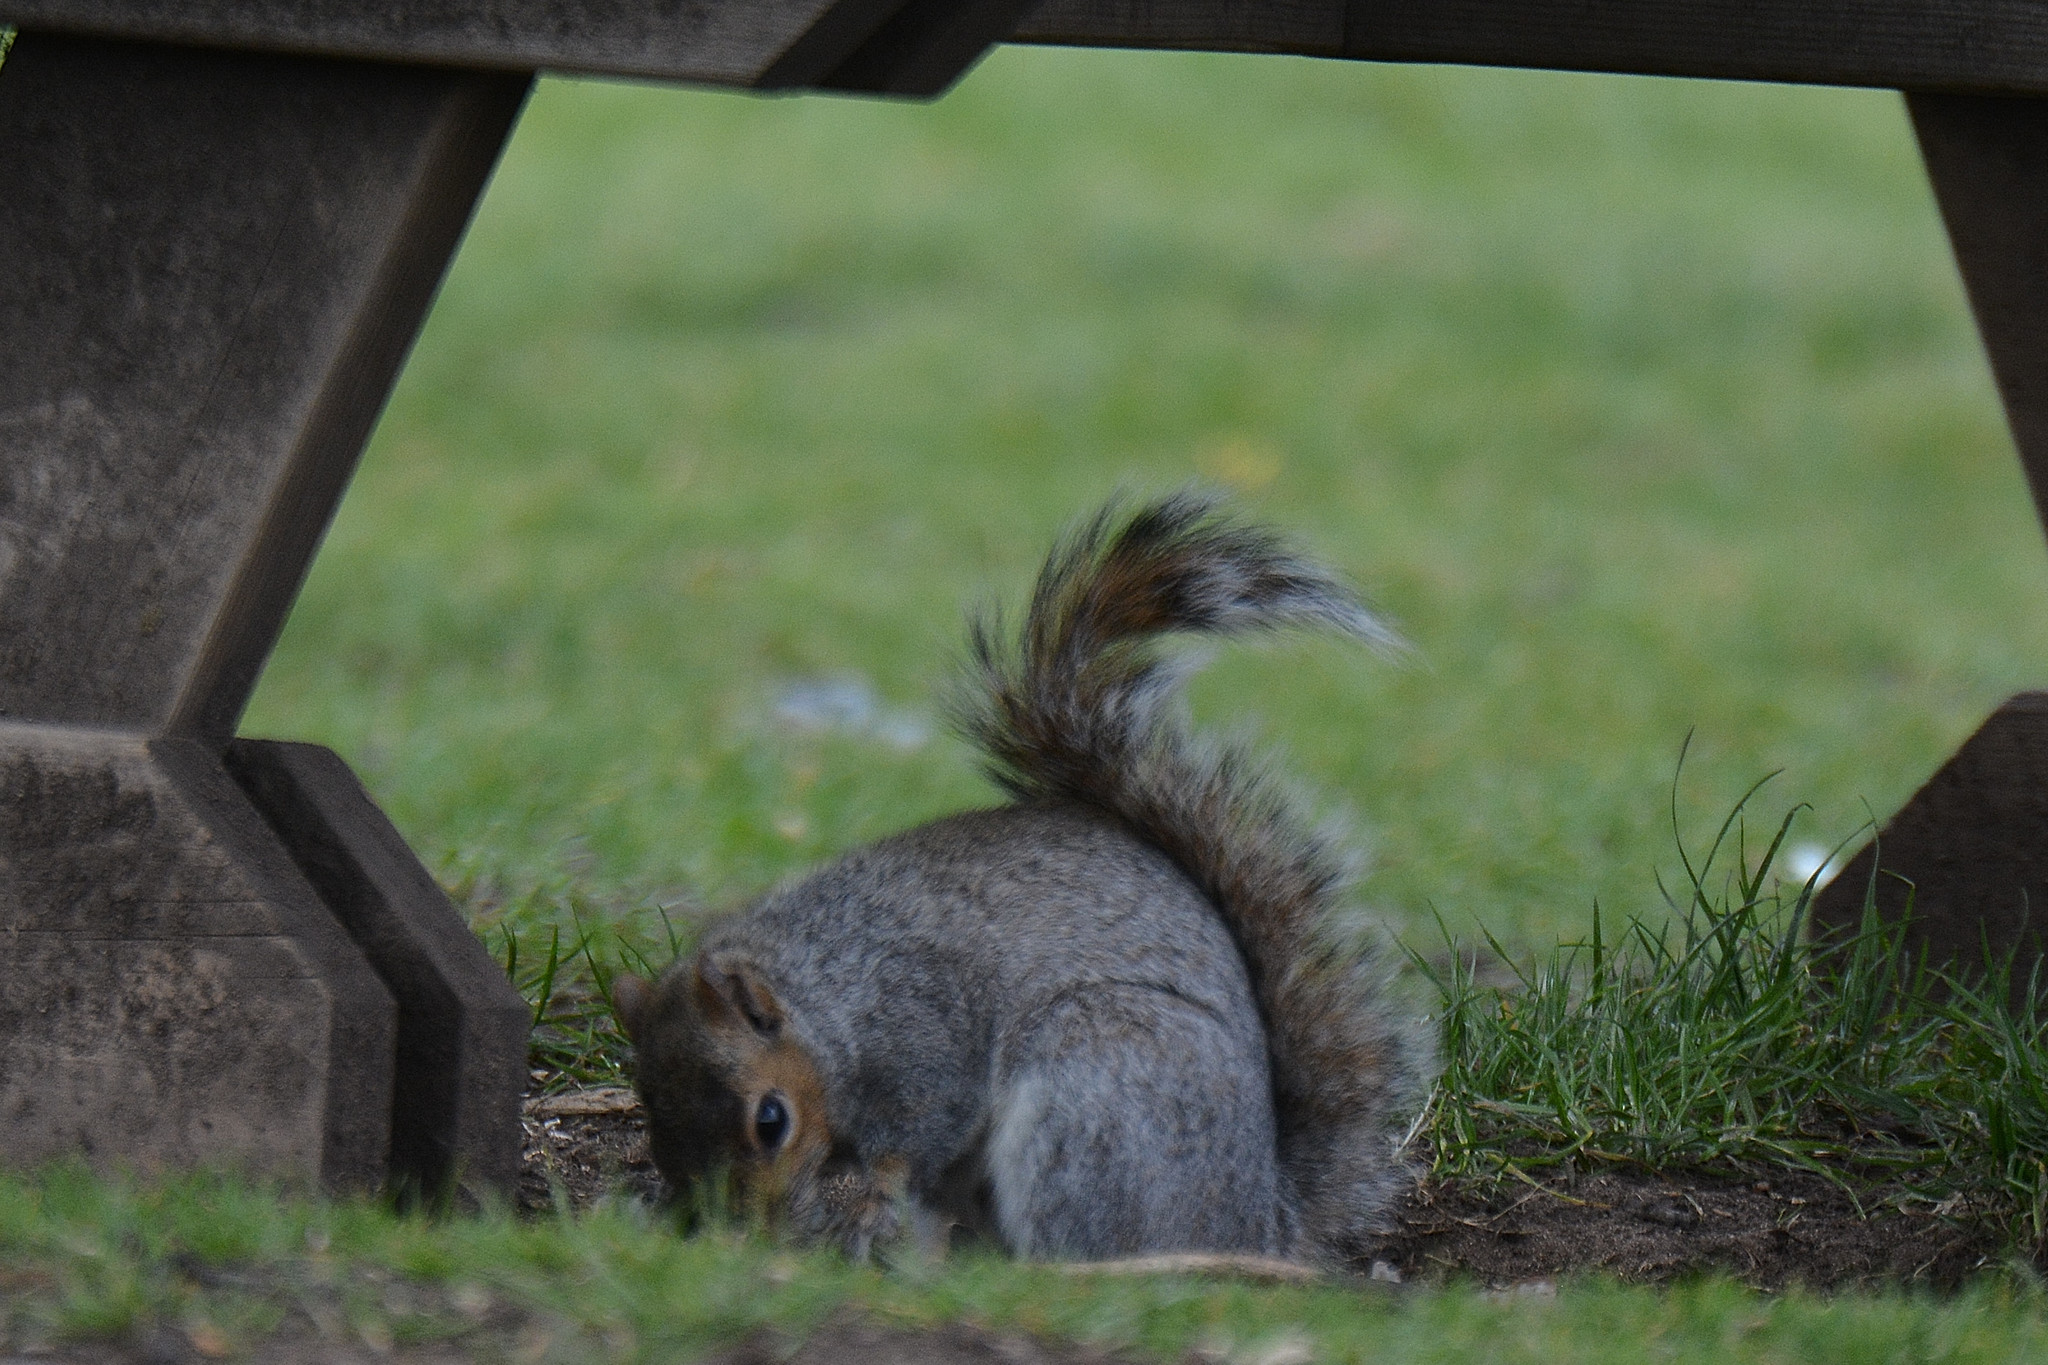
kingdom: Animalia
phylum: Chordata
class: Mammalia
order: Rodentia
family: Sciuridae
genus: Sciurus
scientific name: Sciurus carolinensis
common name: Eastern gray squirrel
